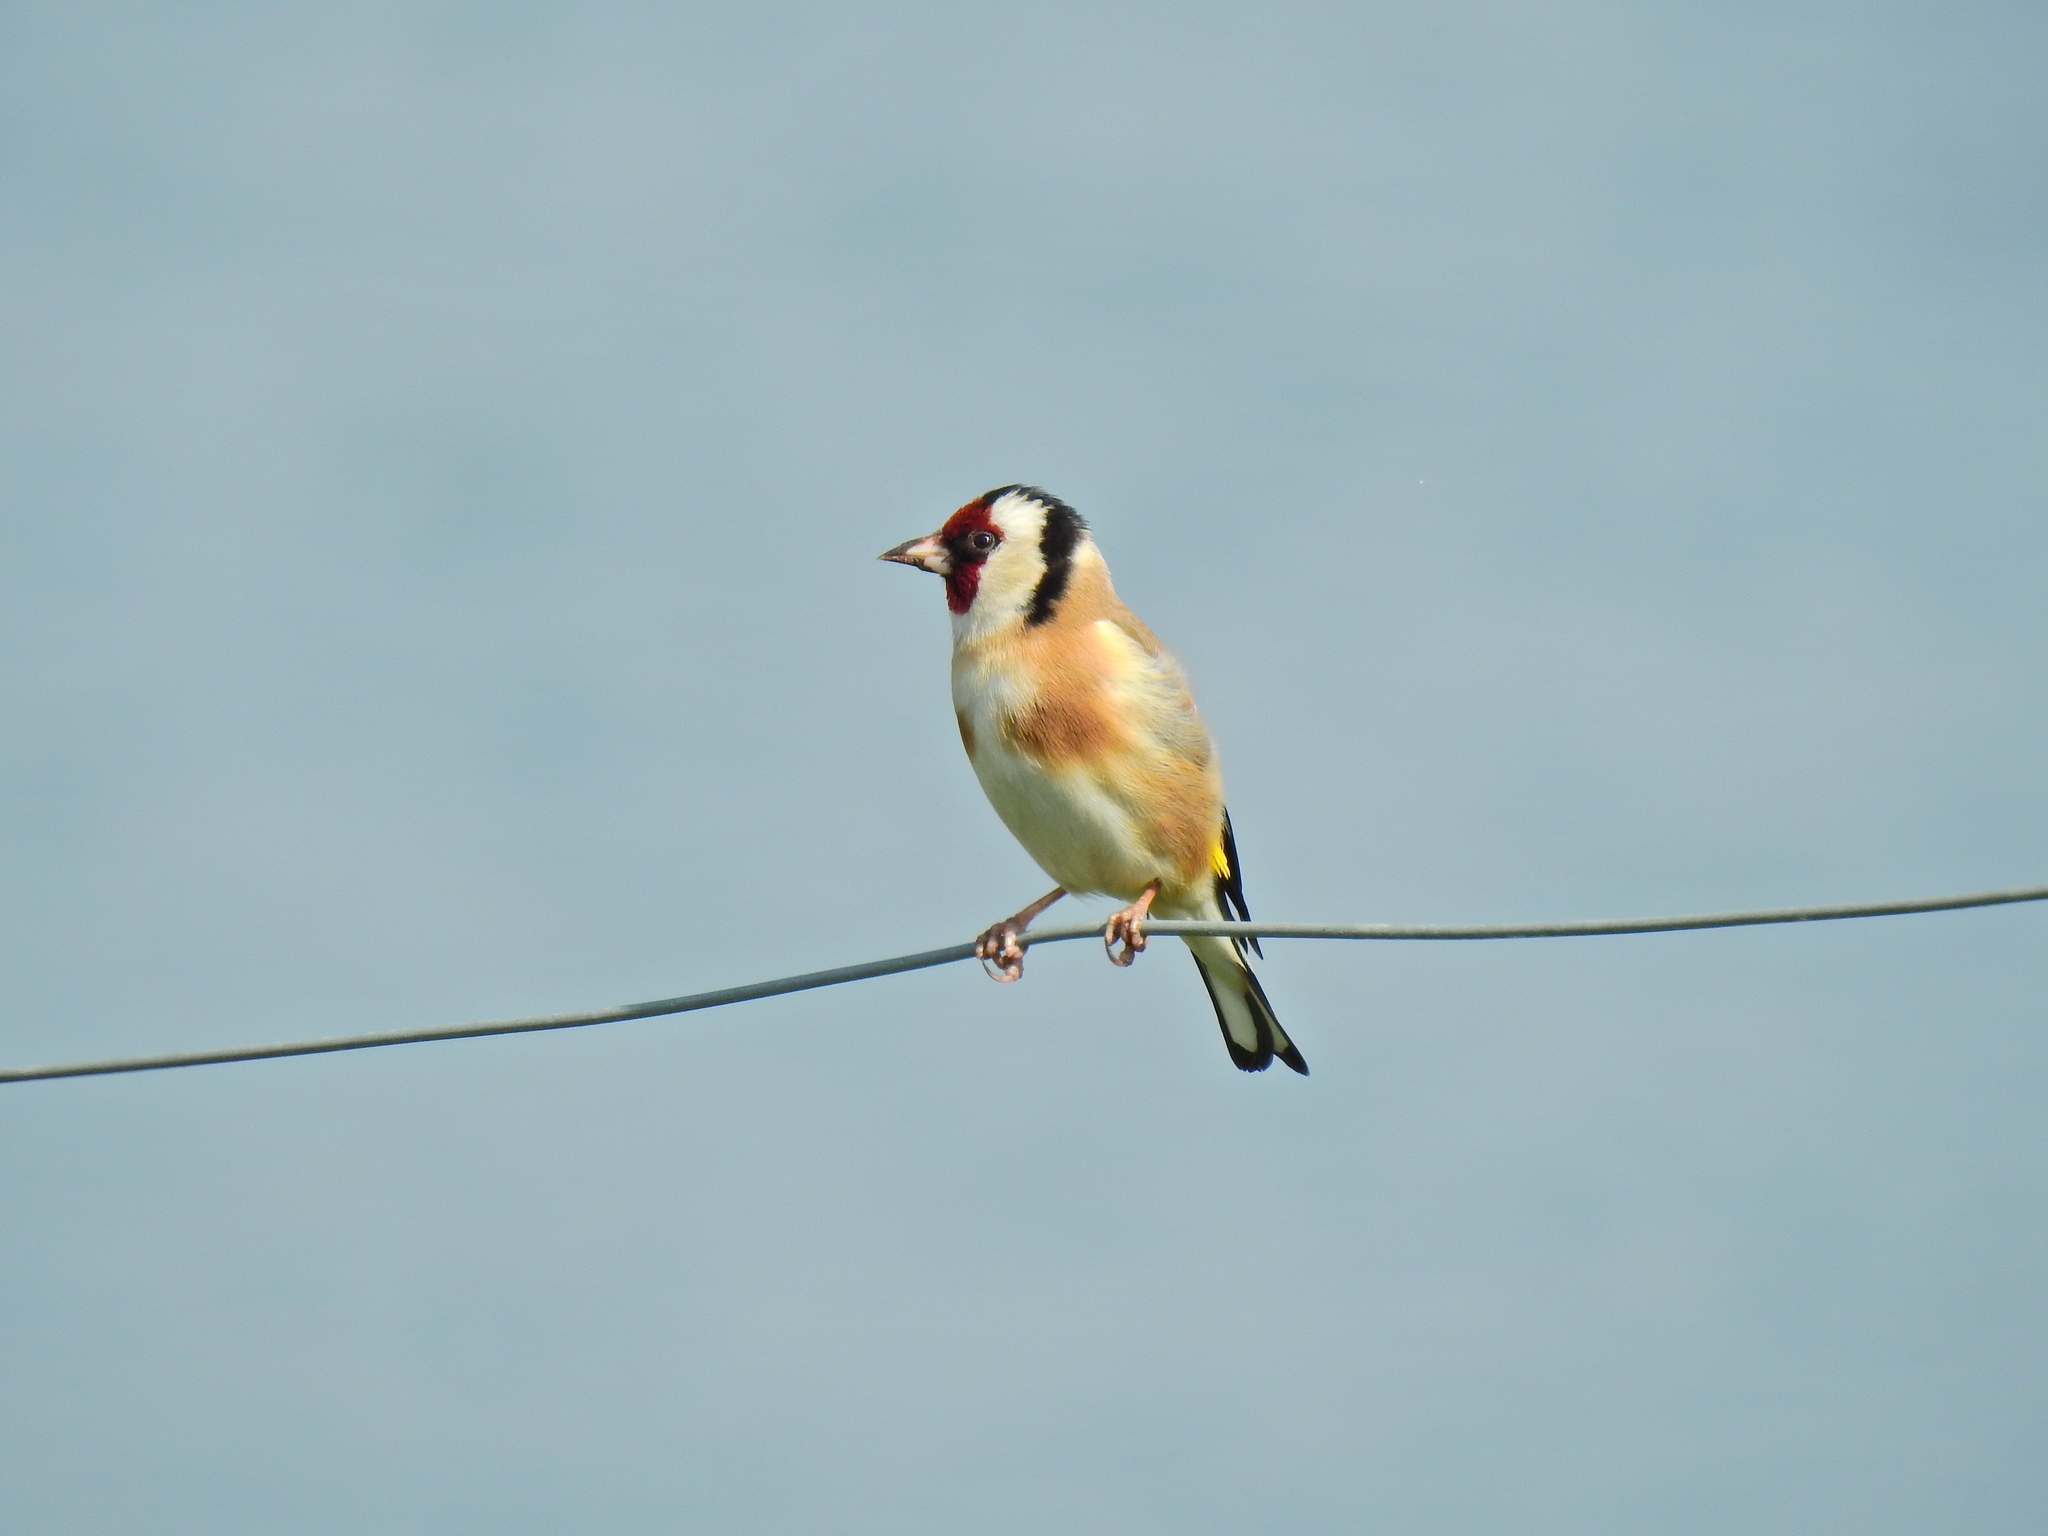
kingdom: Animalia
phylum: Chordata
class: Aves
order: Passeriformes
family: Fringillidae
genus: Carduelis
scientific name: Carduelis carduelis
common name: European goldfinch
